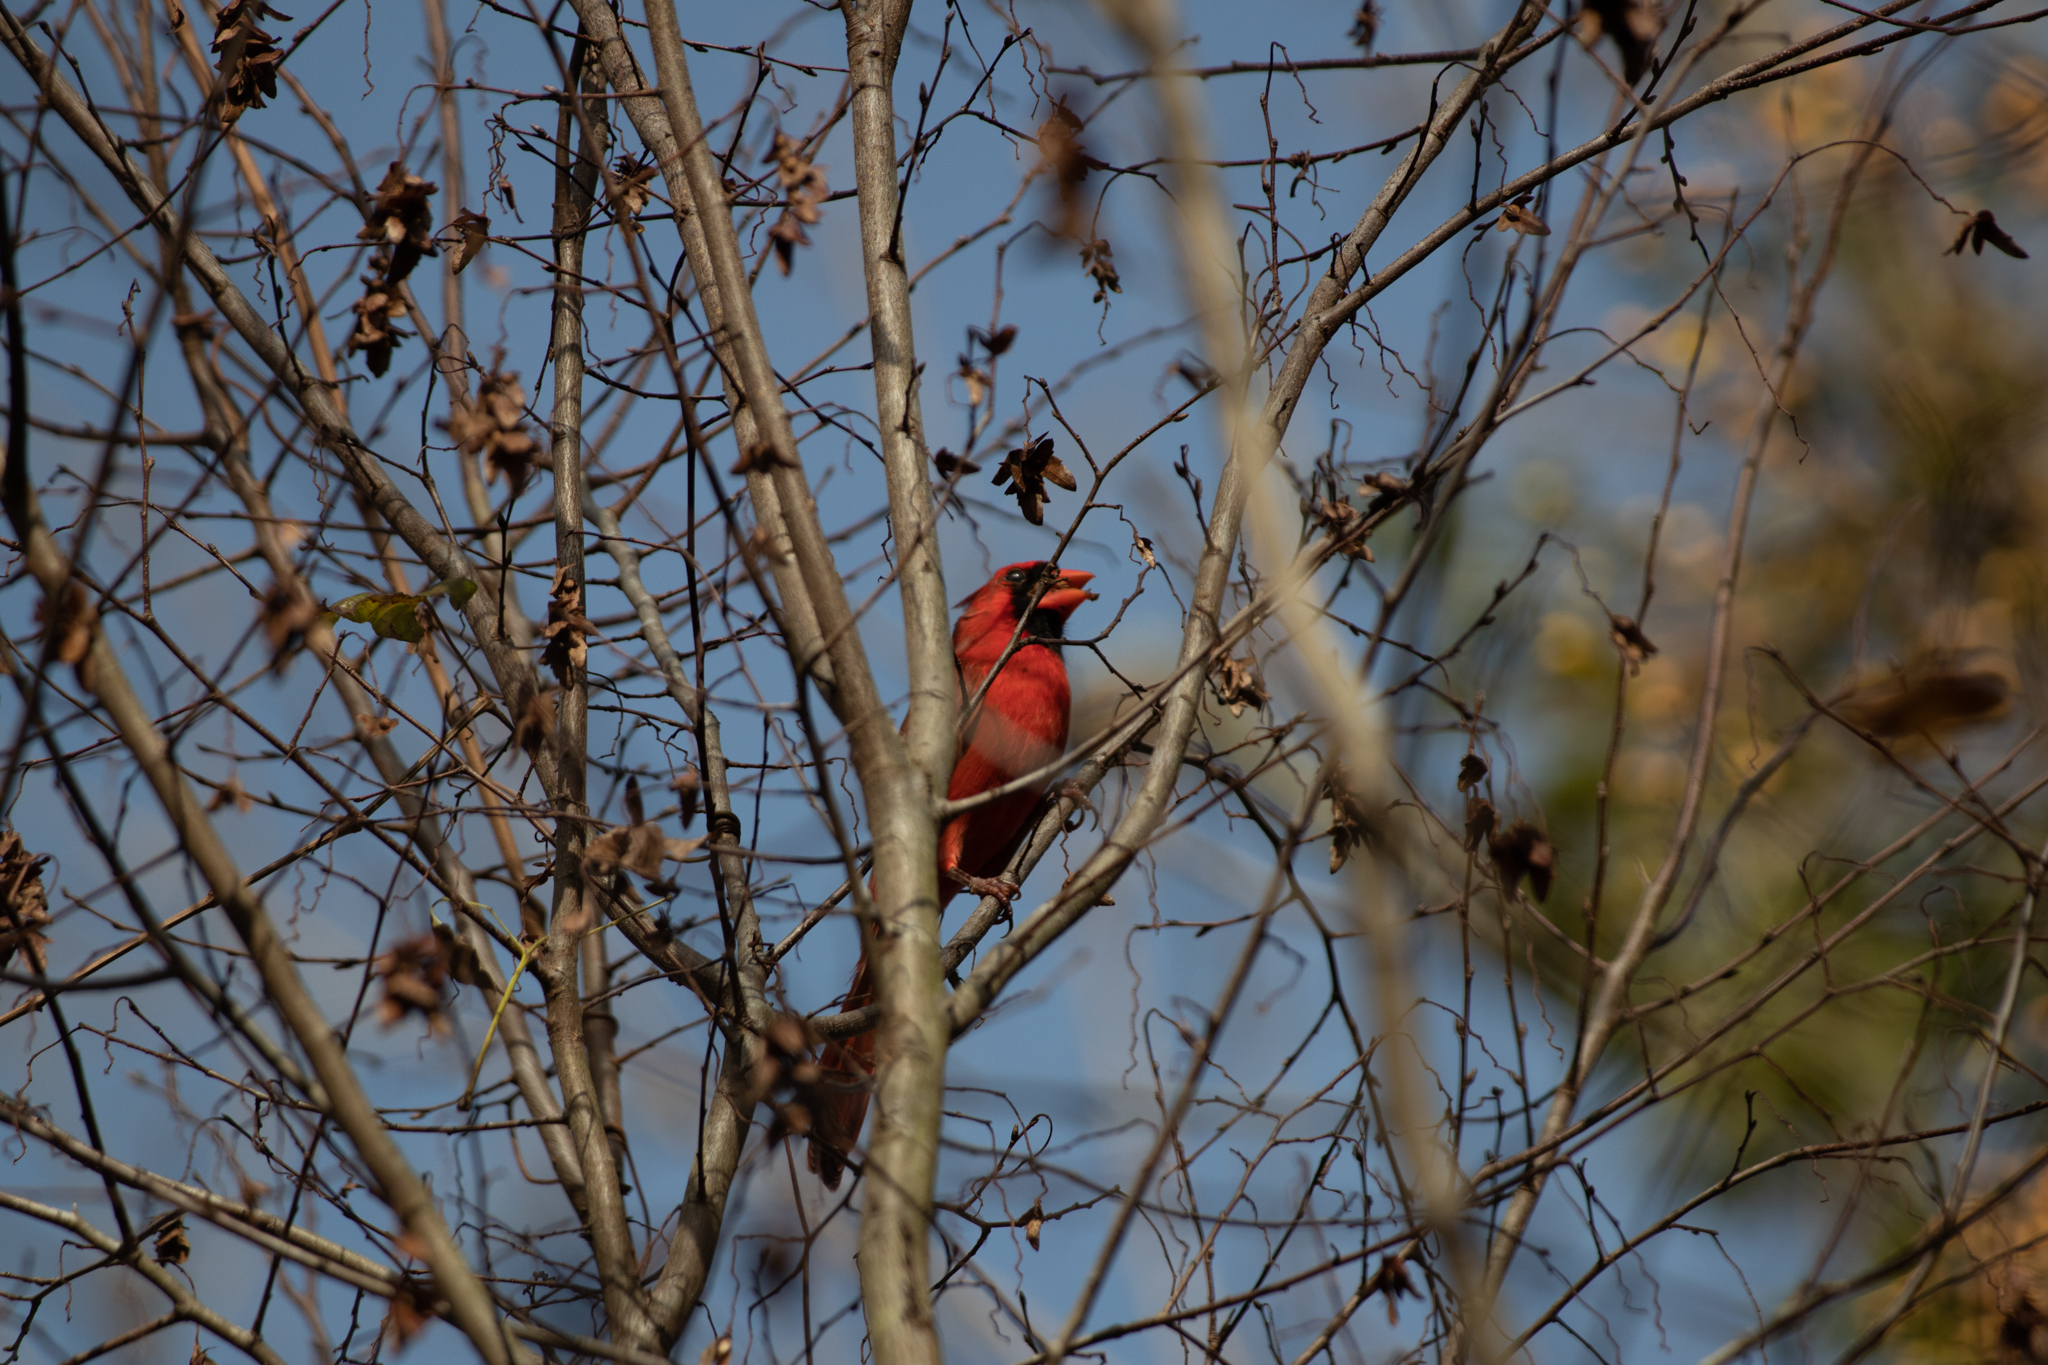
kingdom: Animalia
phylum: Chordata
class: Aves
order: Passeriformes
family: Cardinalidae
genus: Cardinalis
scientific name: Cardinalis cardinalis
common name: Northern cardinal
